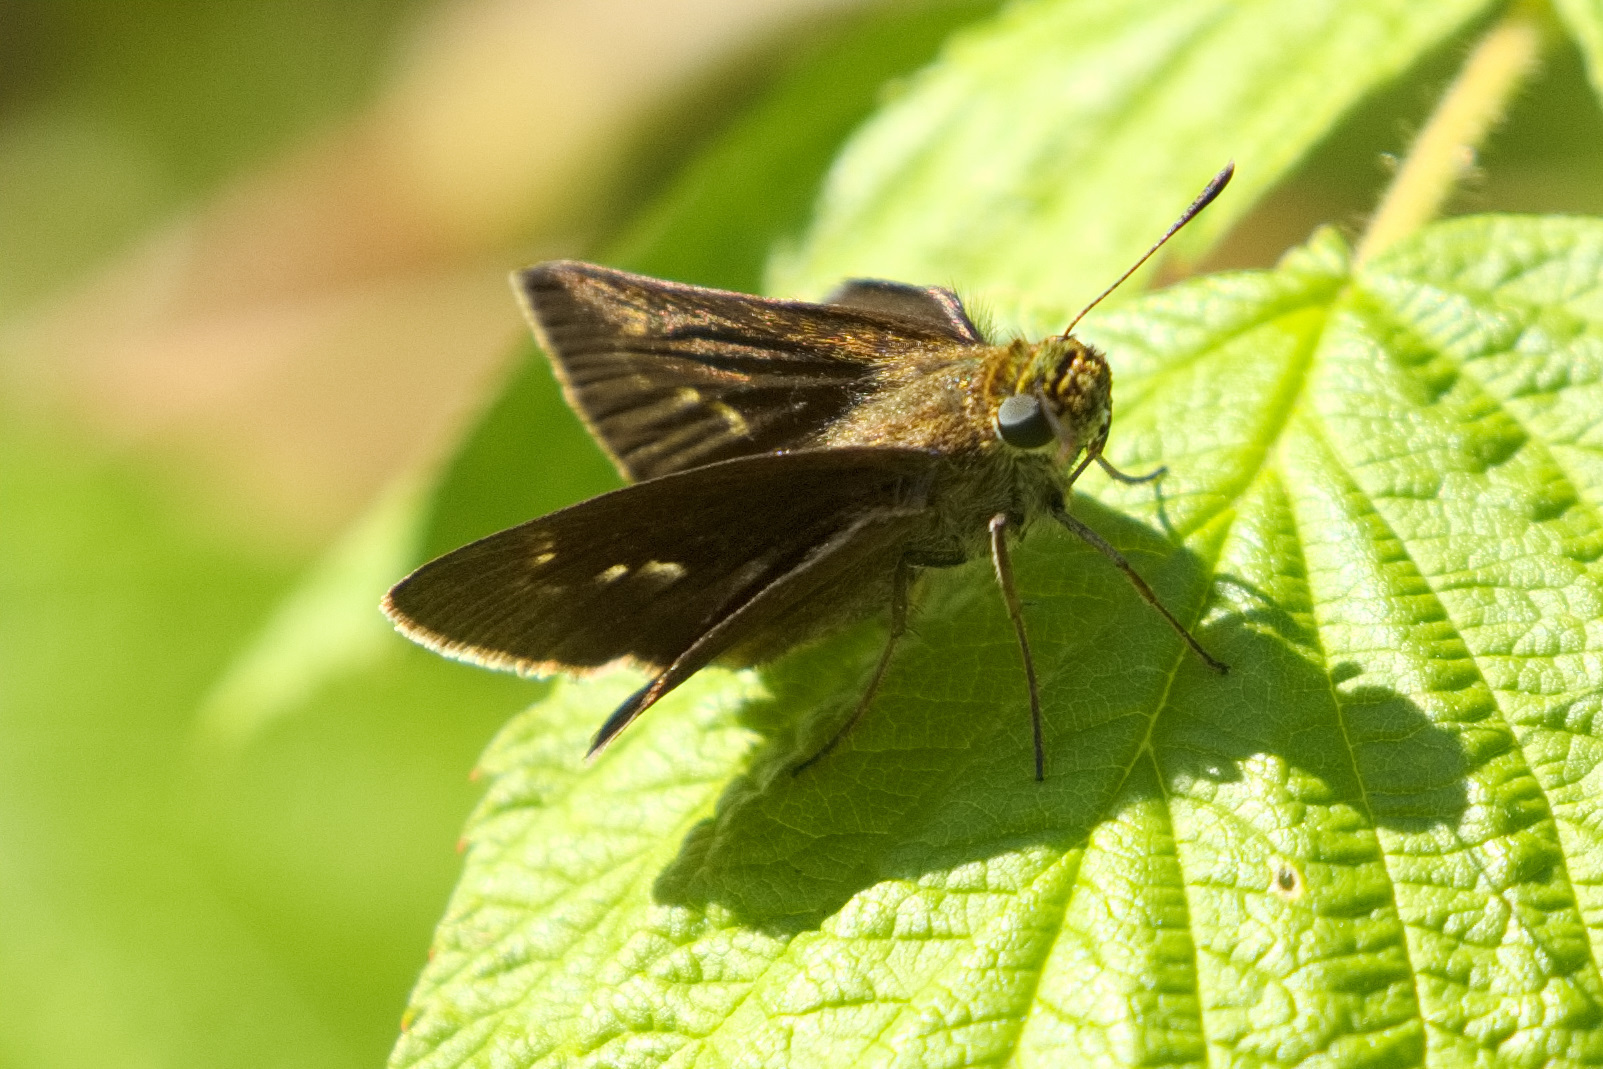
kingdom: Animalia
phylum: Arthropoda
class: Insecta
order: Lepidoptera
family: Hesperiidae
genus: Euphyes
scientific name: Euphyes vestris
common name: Dun skipper
